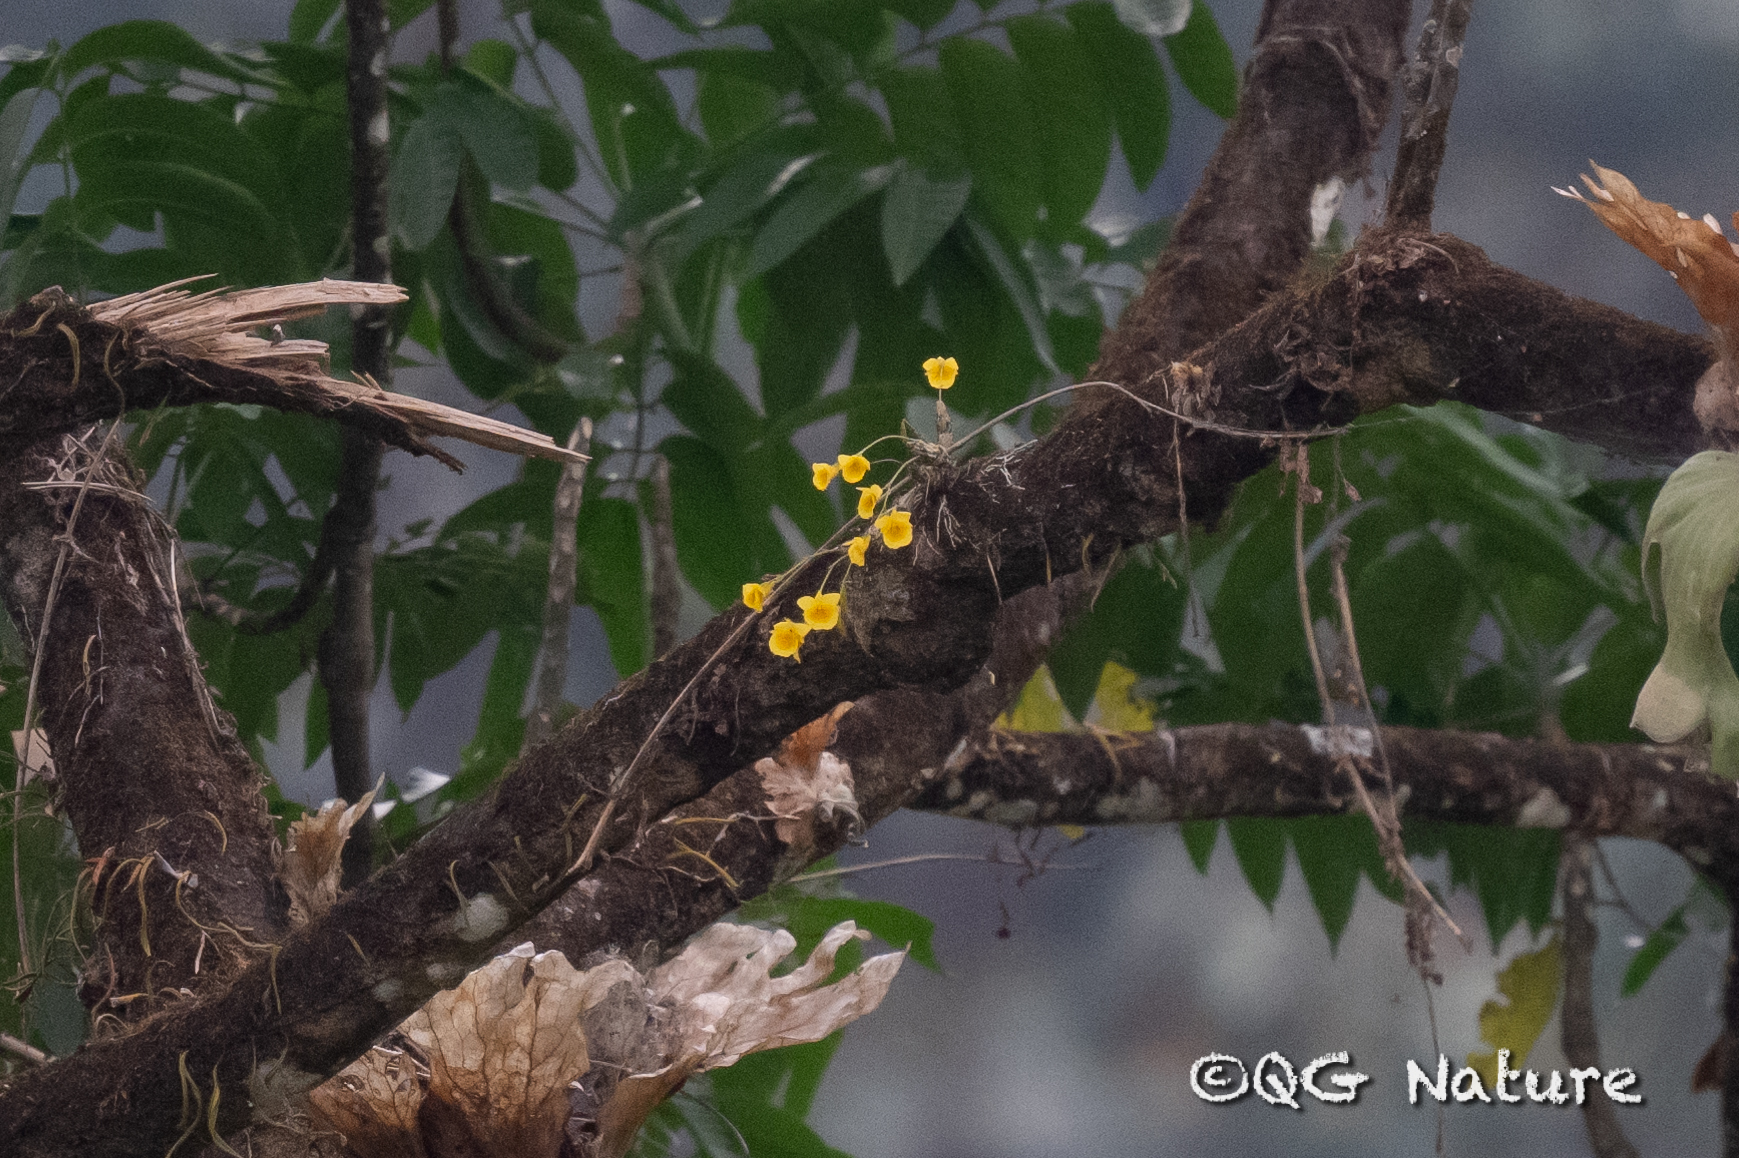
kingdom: Plantae
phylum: Tracheophyta
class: Liliopsida
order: Asparagales
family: Orchidaceae
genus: Dendrobium
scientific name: Dendrobium capillipes
